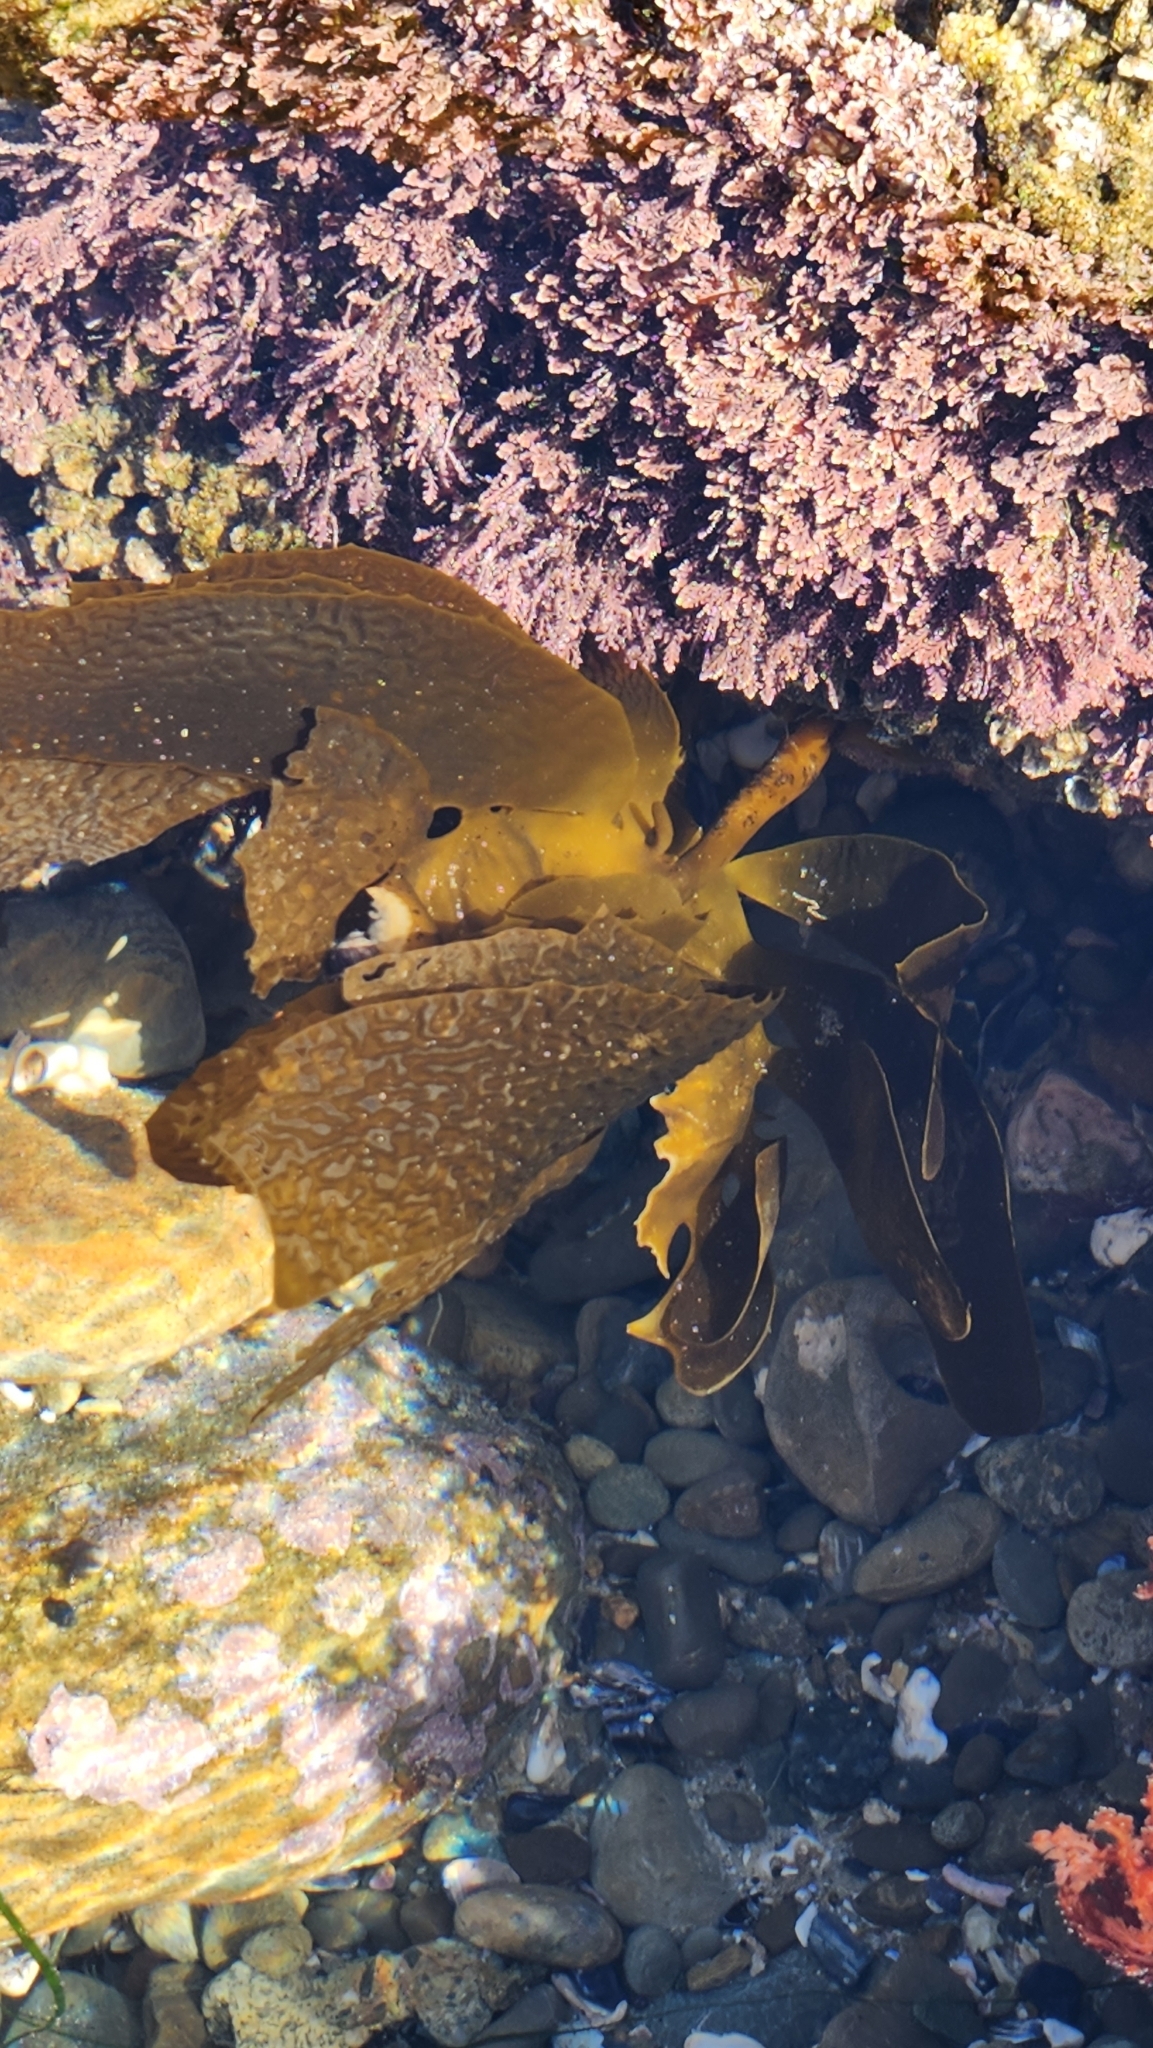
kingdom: Chromista
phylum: Ochrophyta
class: Phaeophyceae
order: Laminariales
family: Lessoniaceae
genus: Eisenia
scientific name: Eisenia arborea
